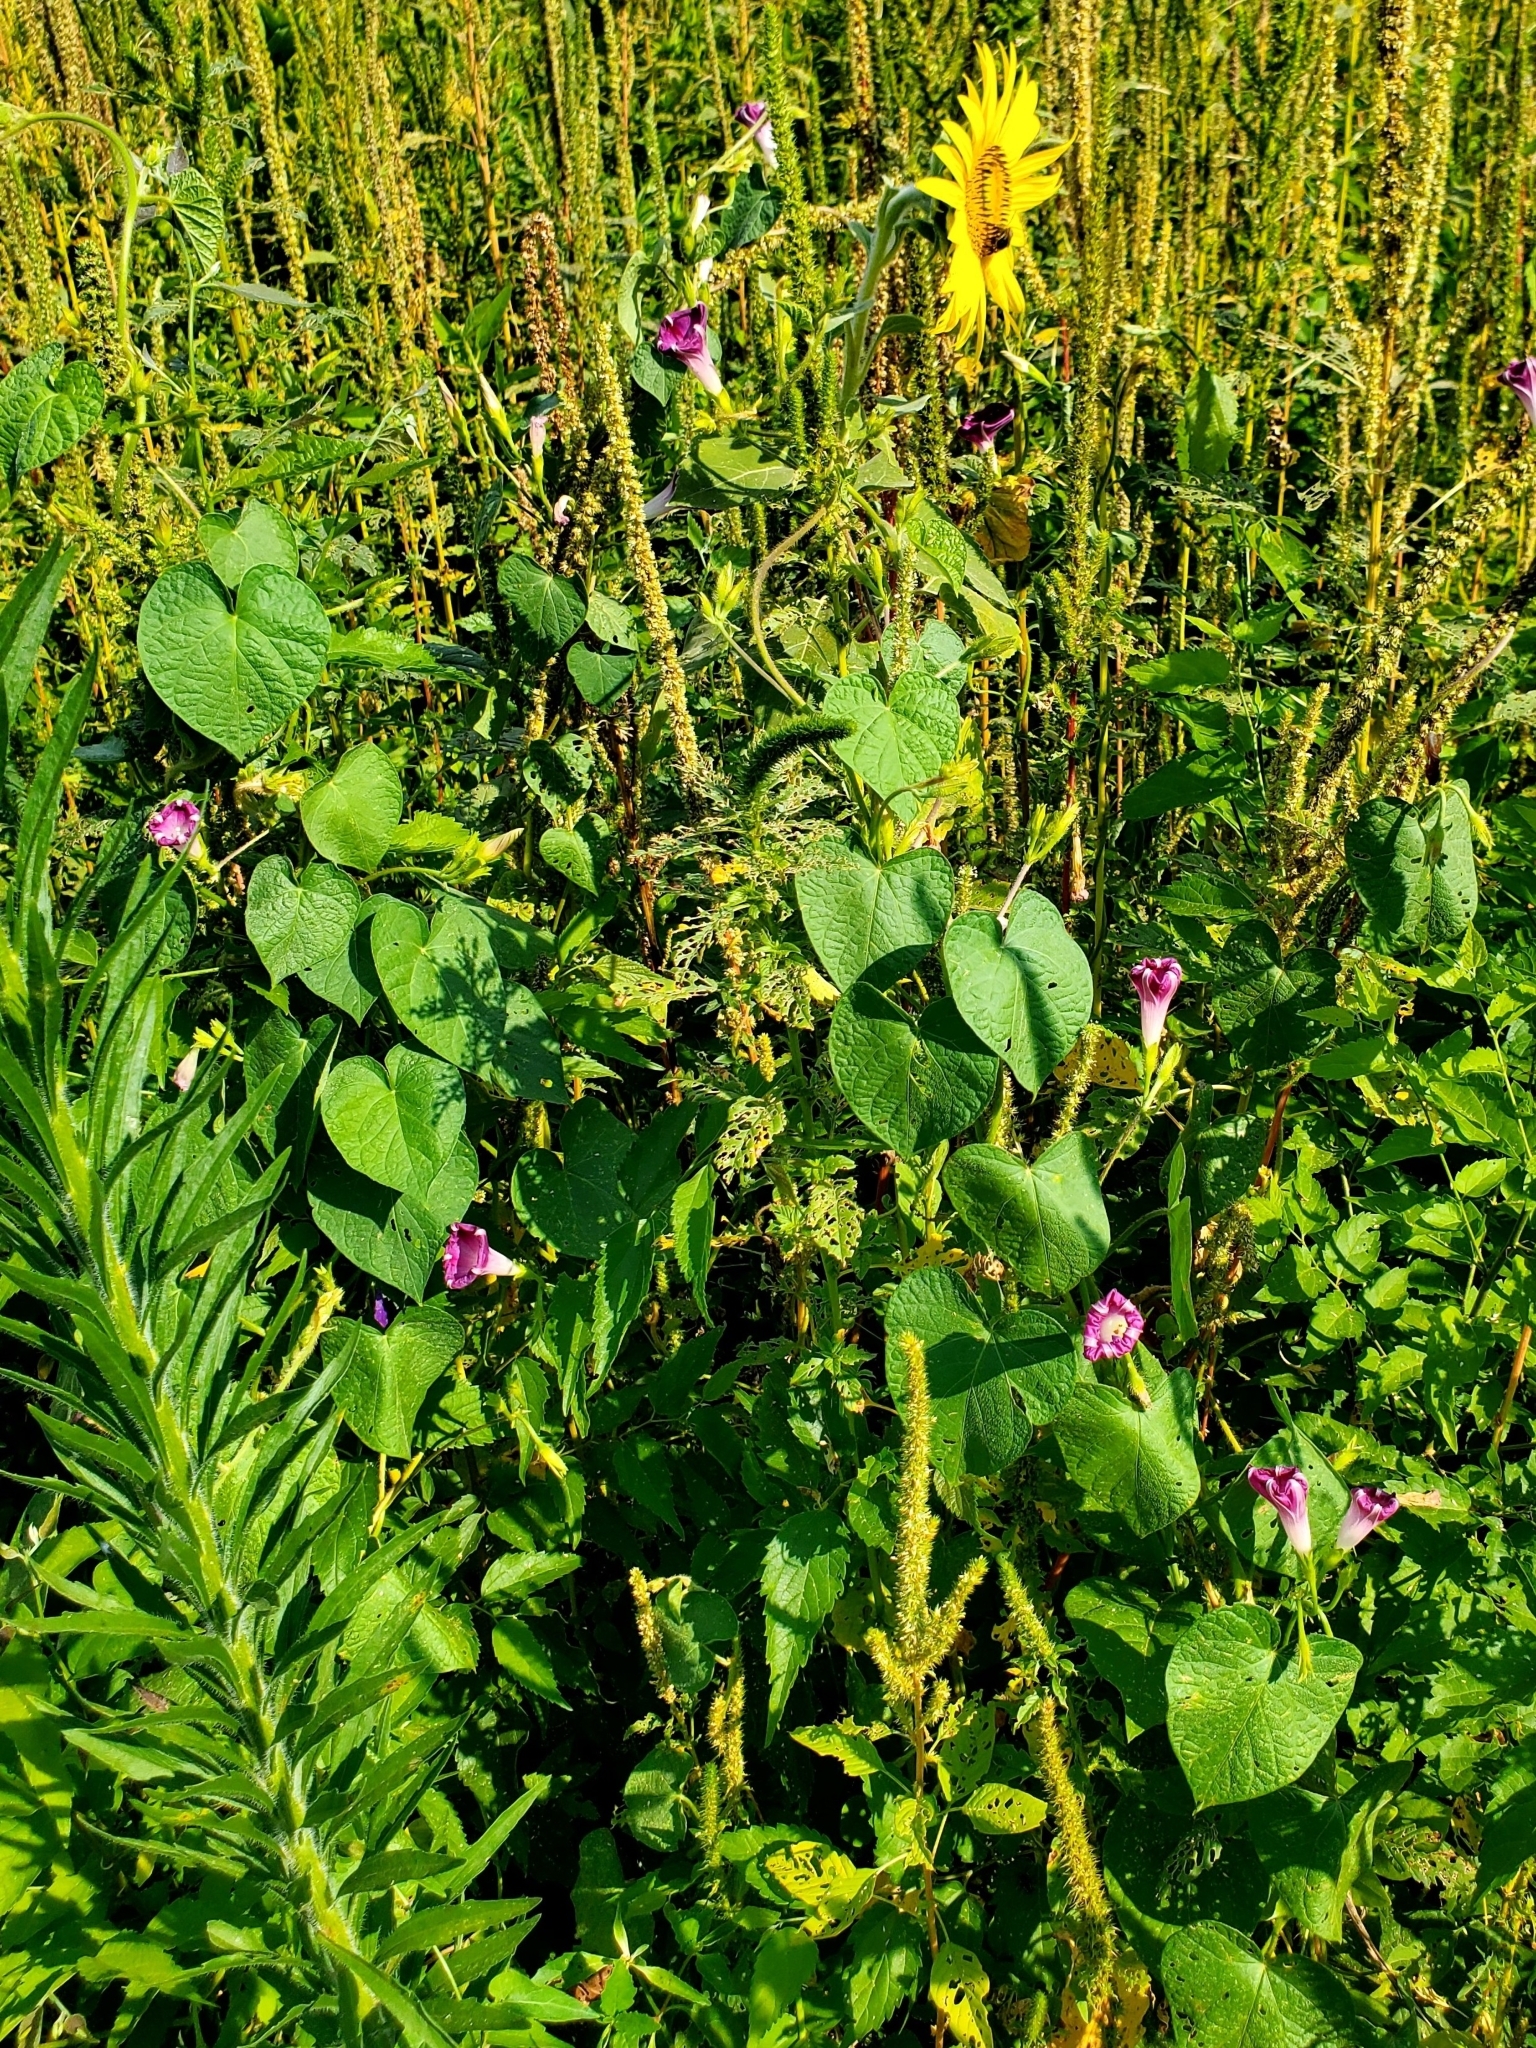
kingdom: Plantae
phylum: Tracheophyta
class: Magnoliopsida
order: Solanales
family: Convolvulaceae
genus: Ipomoea
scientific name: Ipomoea purpurea
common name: Common morning-glory
